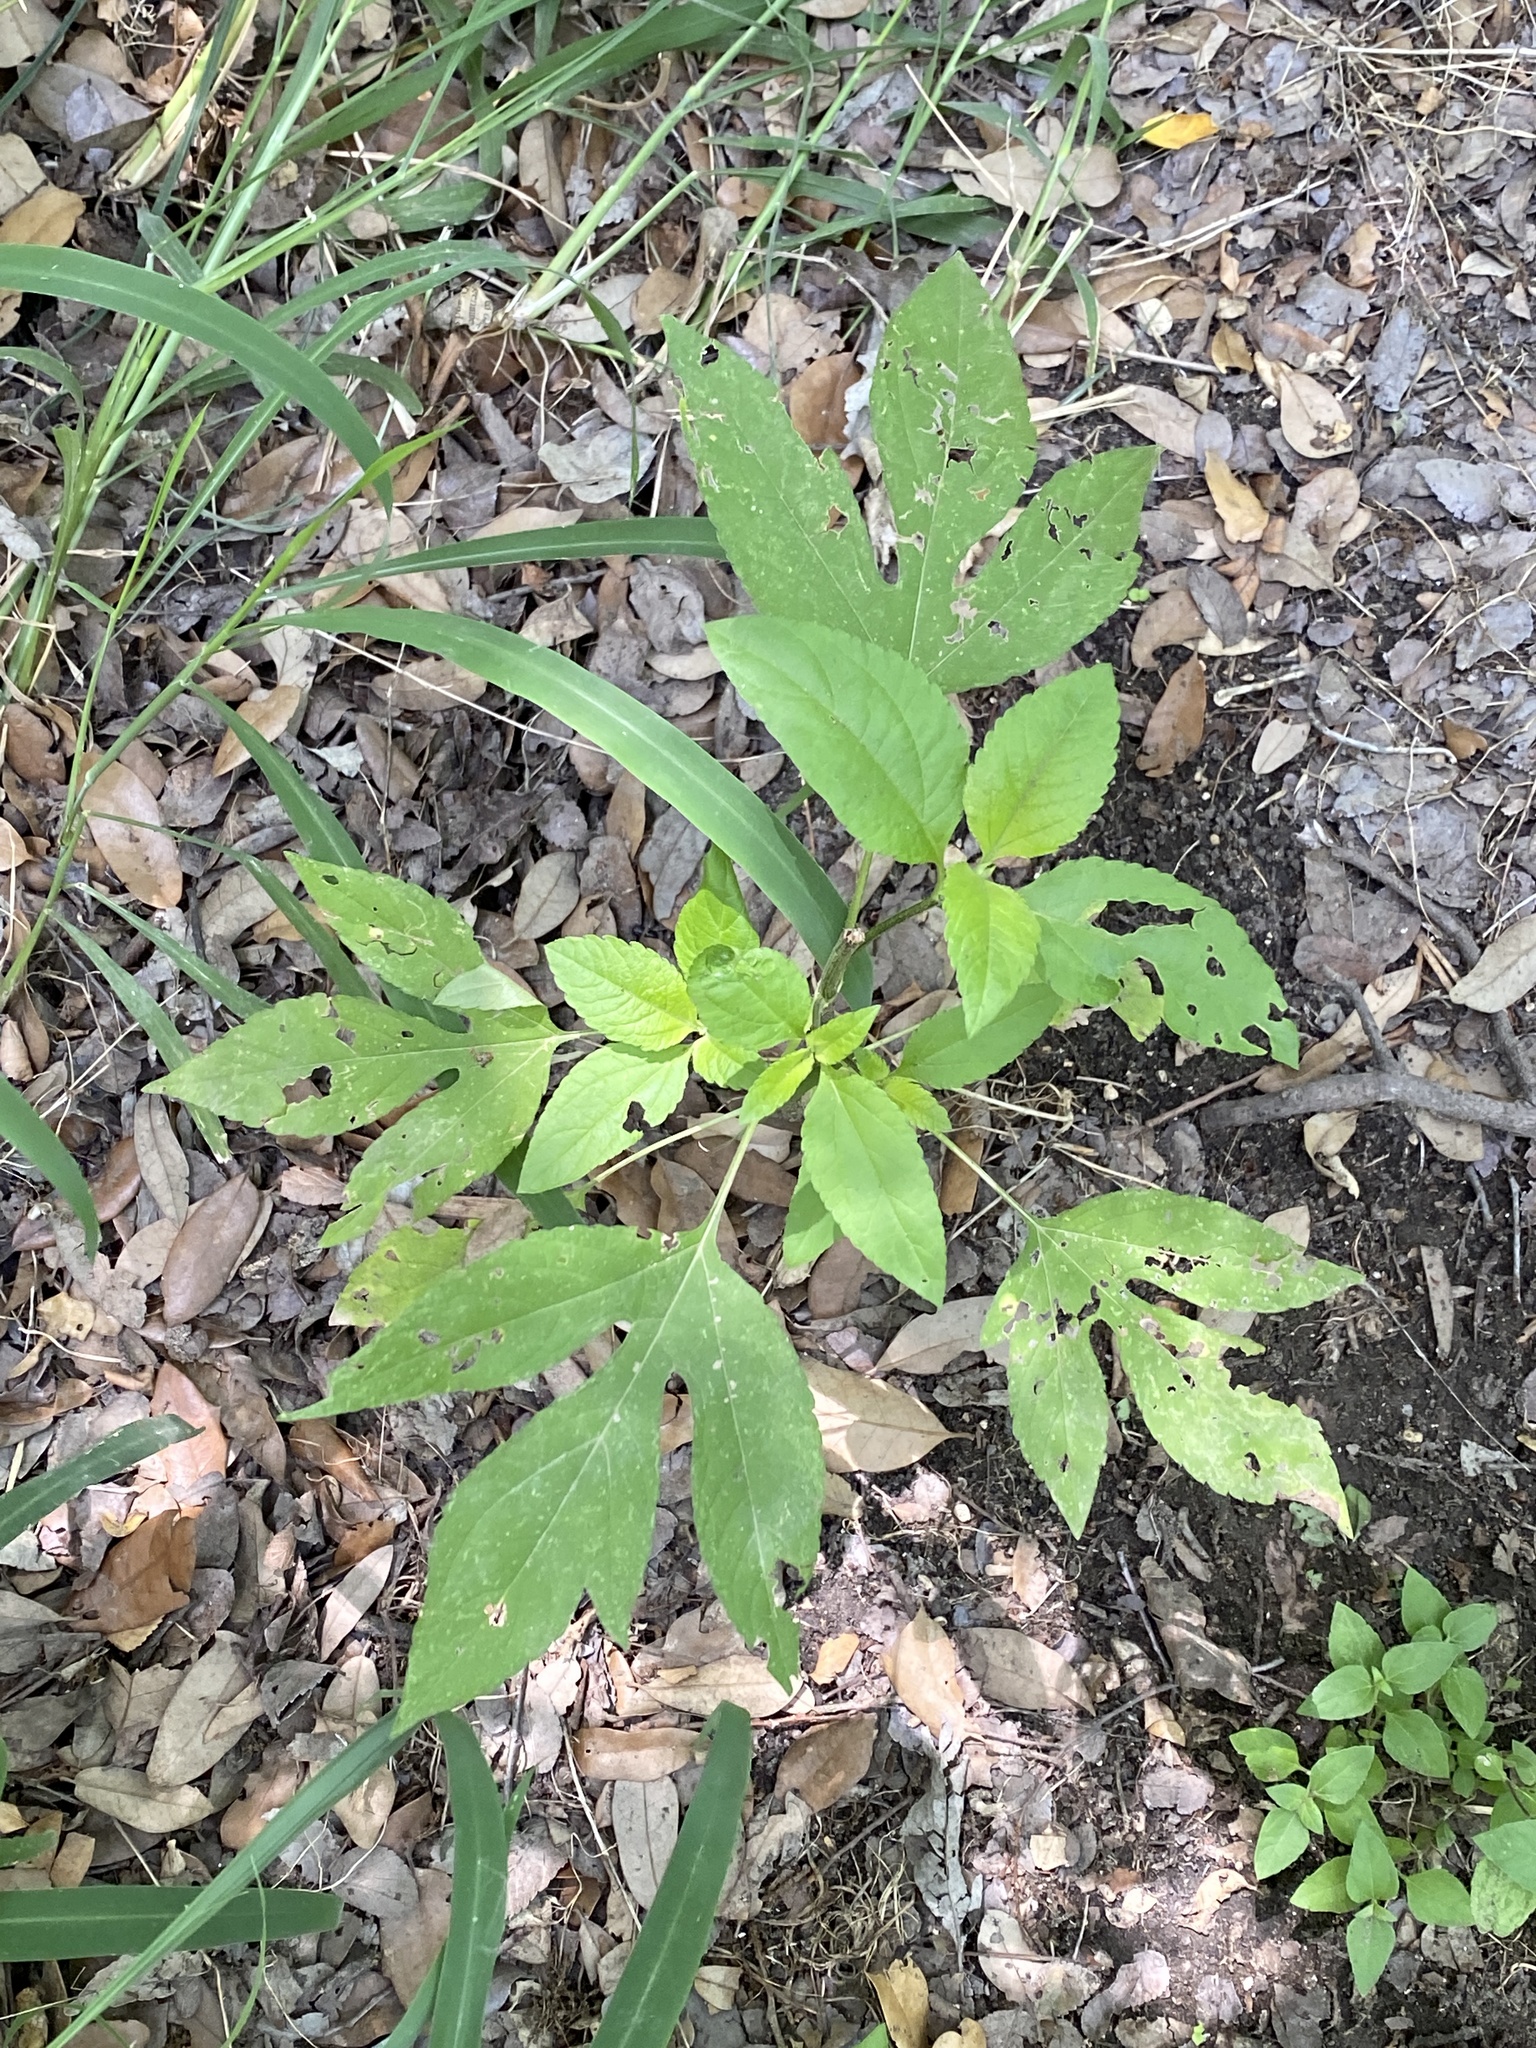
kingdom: Plantae
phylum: Tracheophyta
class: Magnoliopsida
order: Asterales
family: Asteraceae
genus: Ambrosia
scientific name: Ambrosia trifida
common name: Giant ragweed
